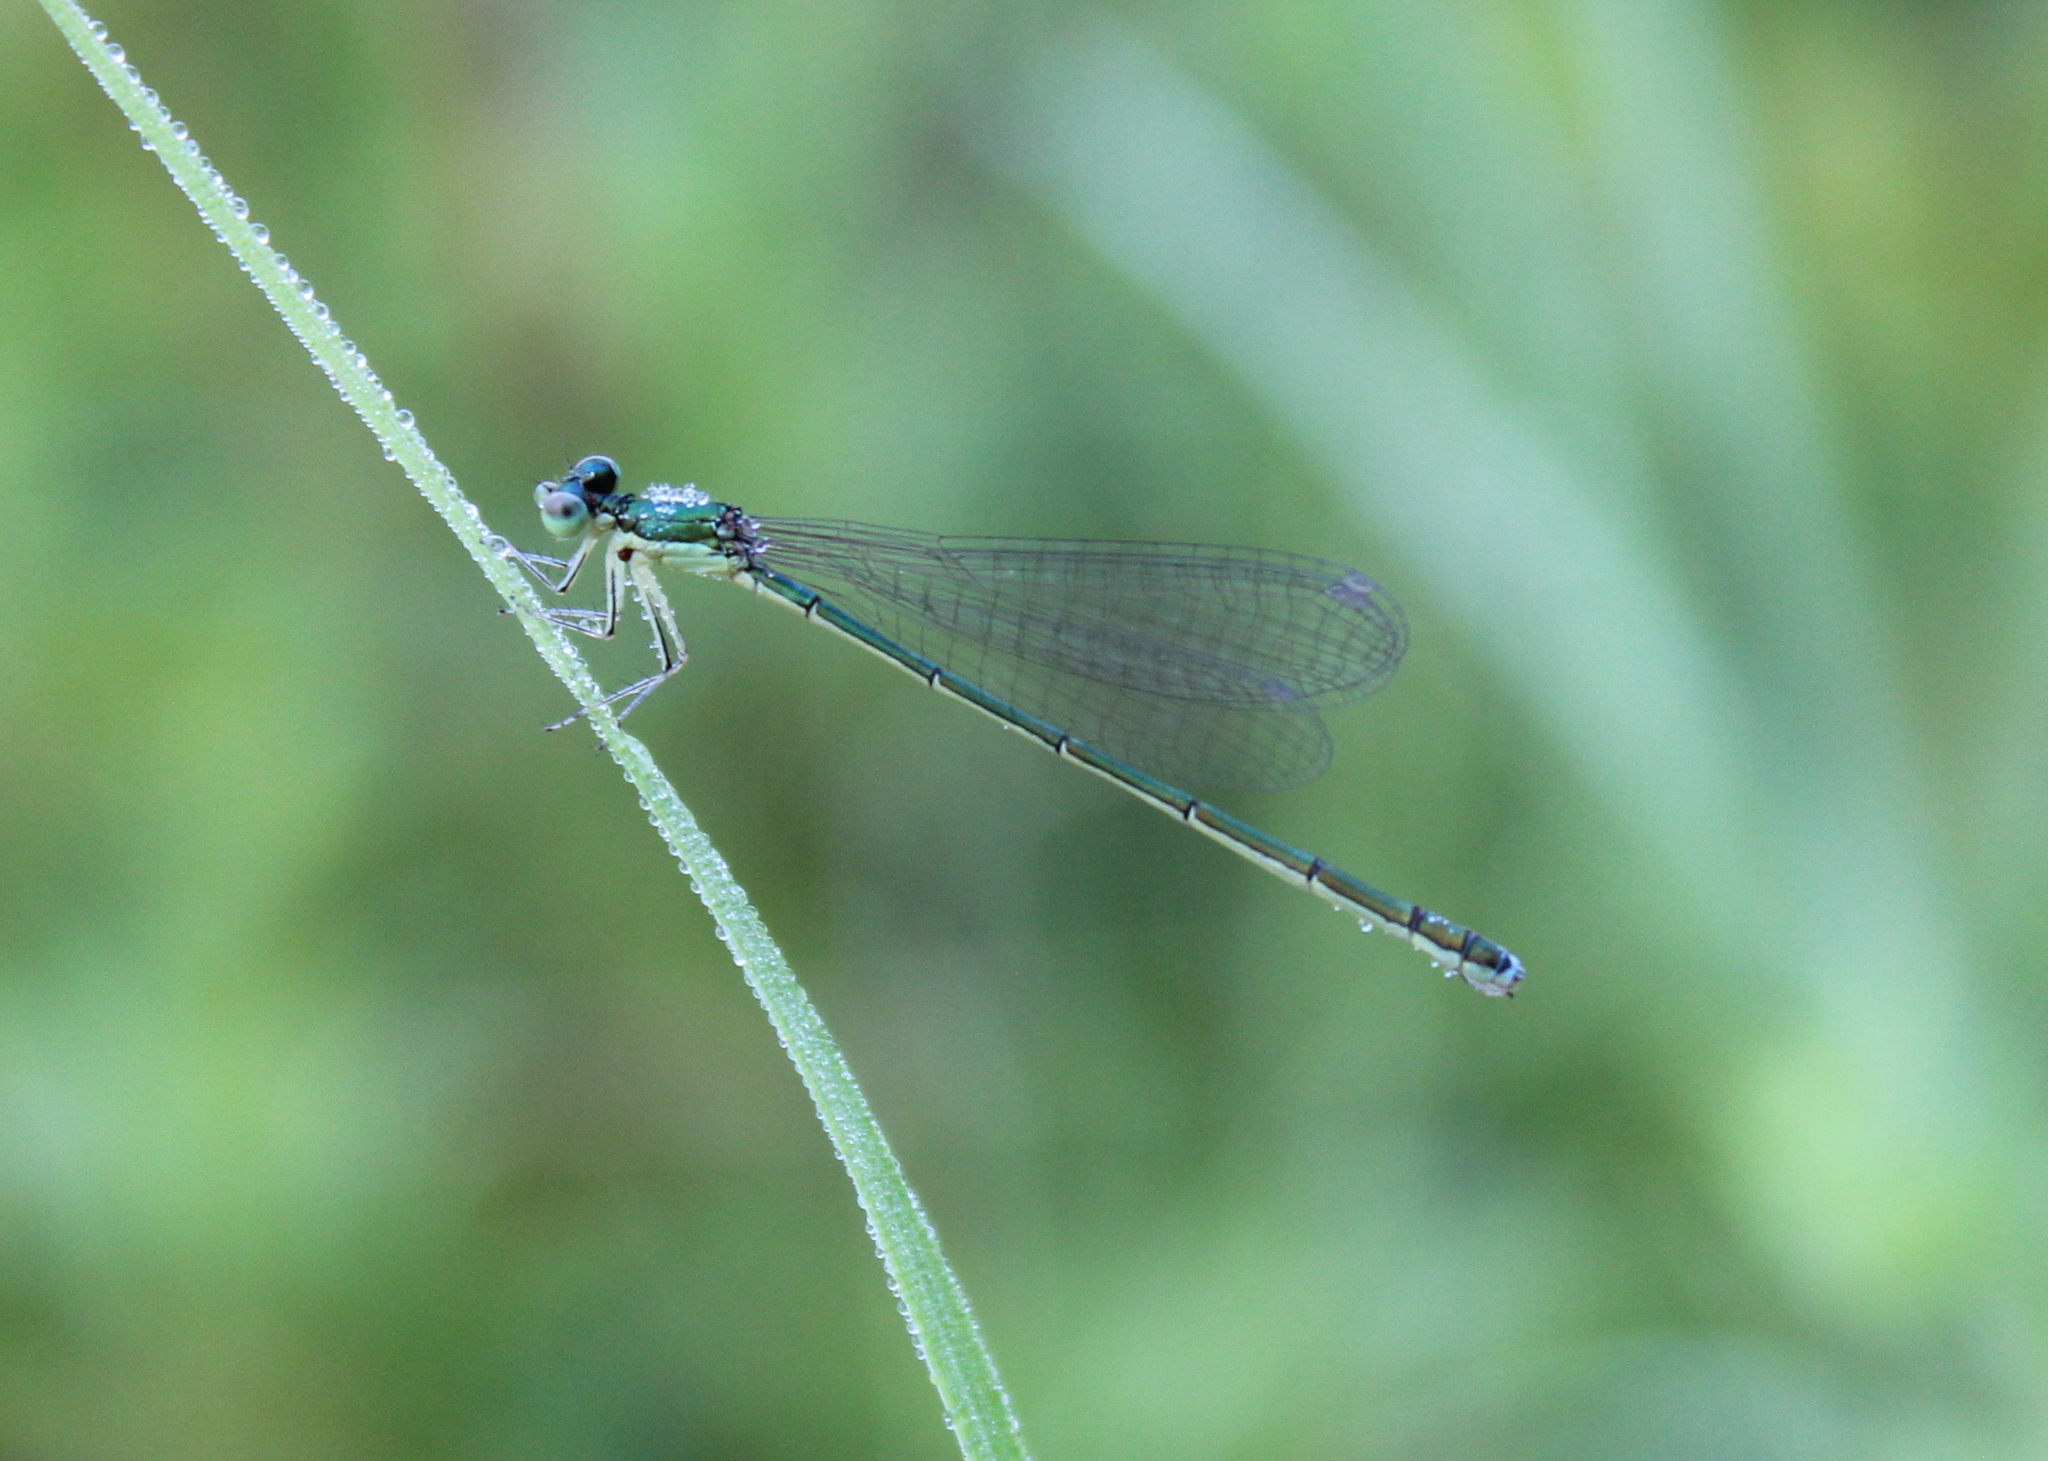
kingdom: Animalia
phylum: Arthropoda
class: Insecta
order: Odonata
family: Coenagrionidae
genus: Nehalennia
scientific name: Nehalennia irene
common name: Sedge sprite
